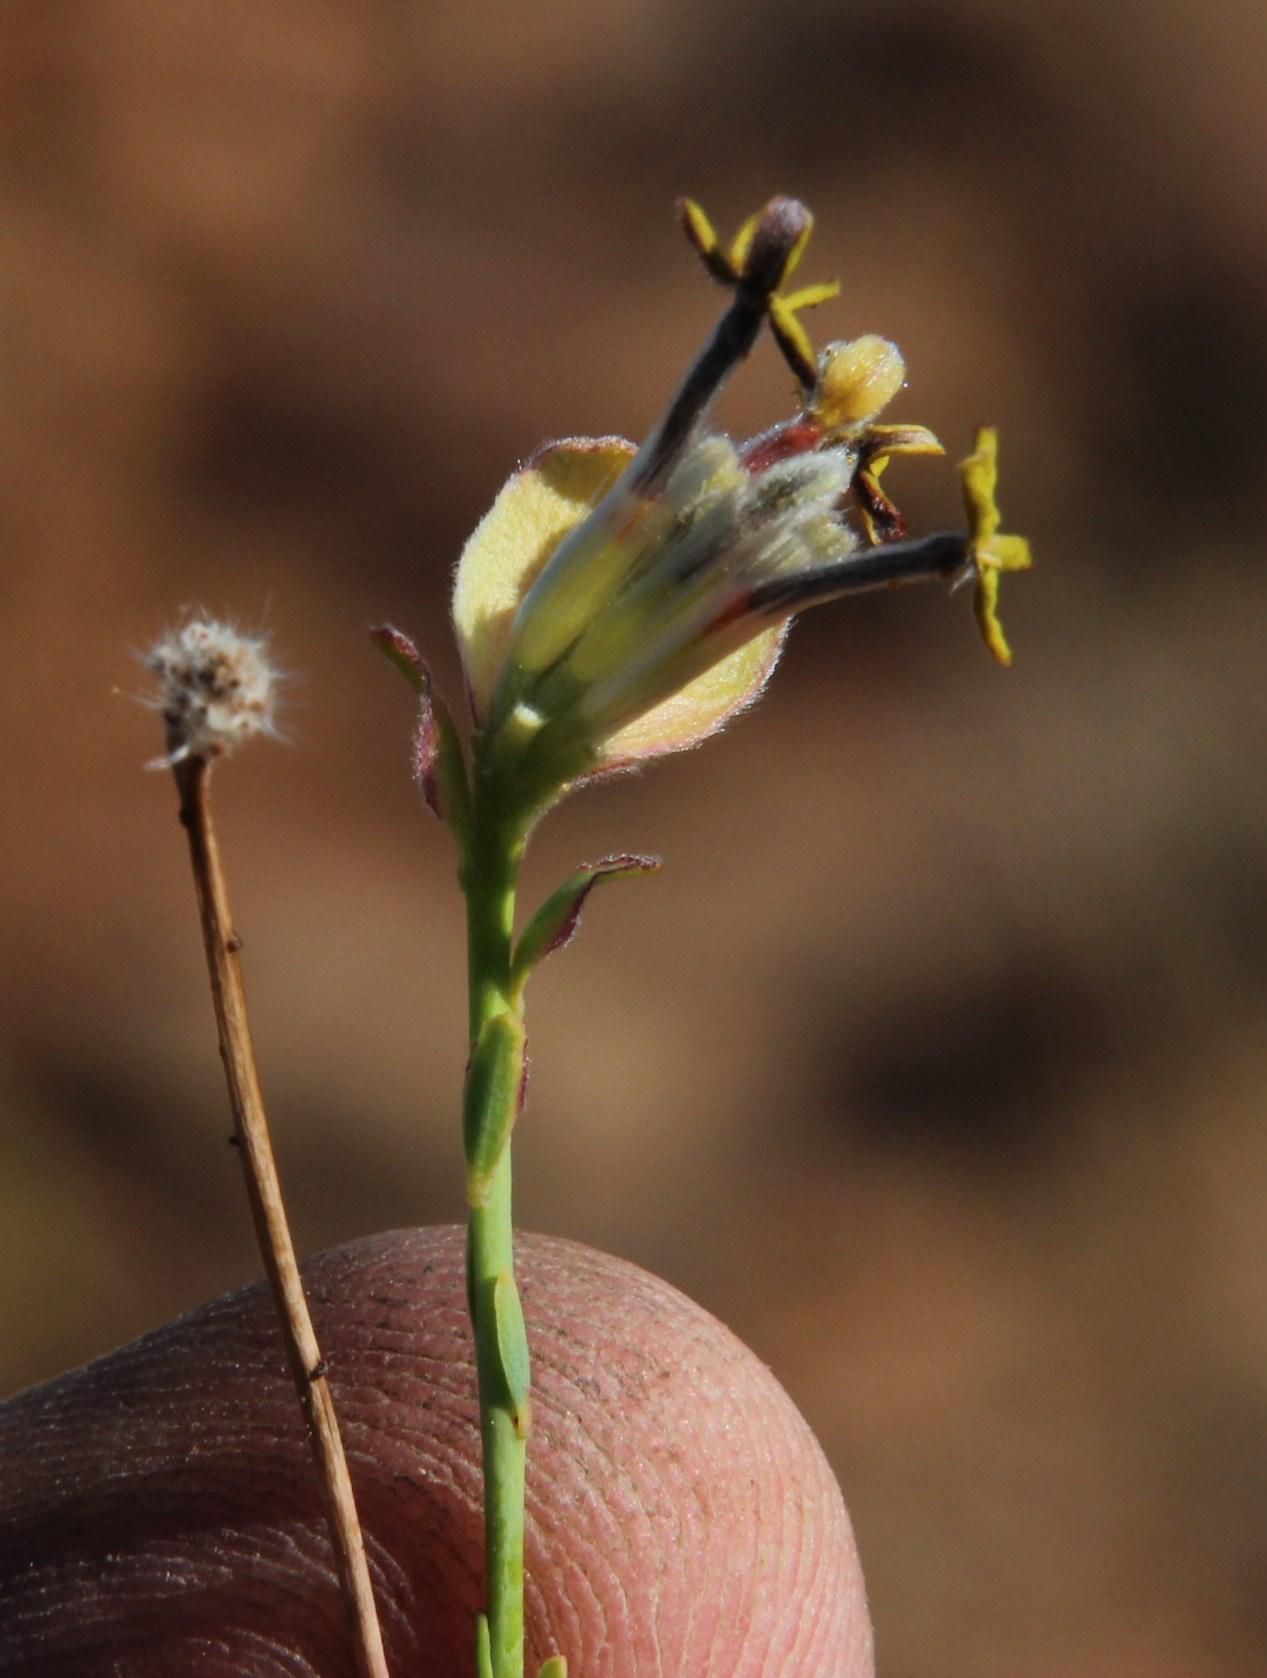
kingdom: Plantae
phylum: Tracheophyta
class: Magnoliopsida
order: Malvales
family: Thymelaeaceae
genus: Gnidia
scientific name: Gnidia kuntzei
